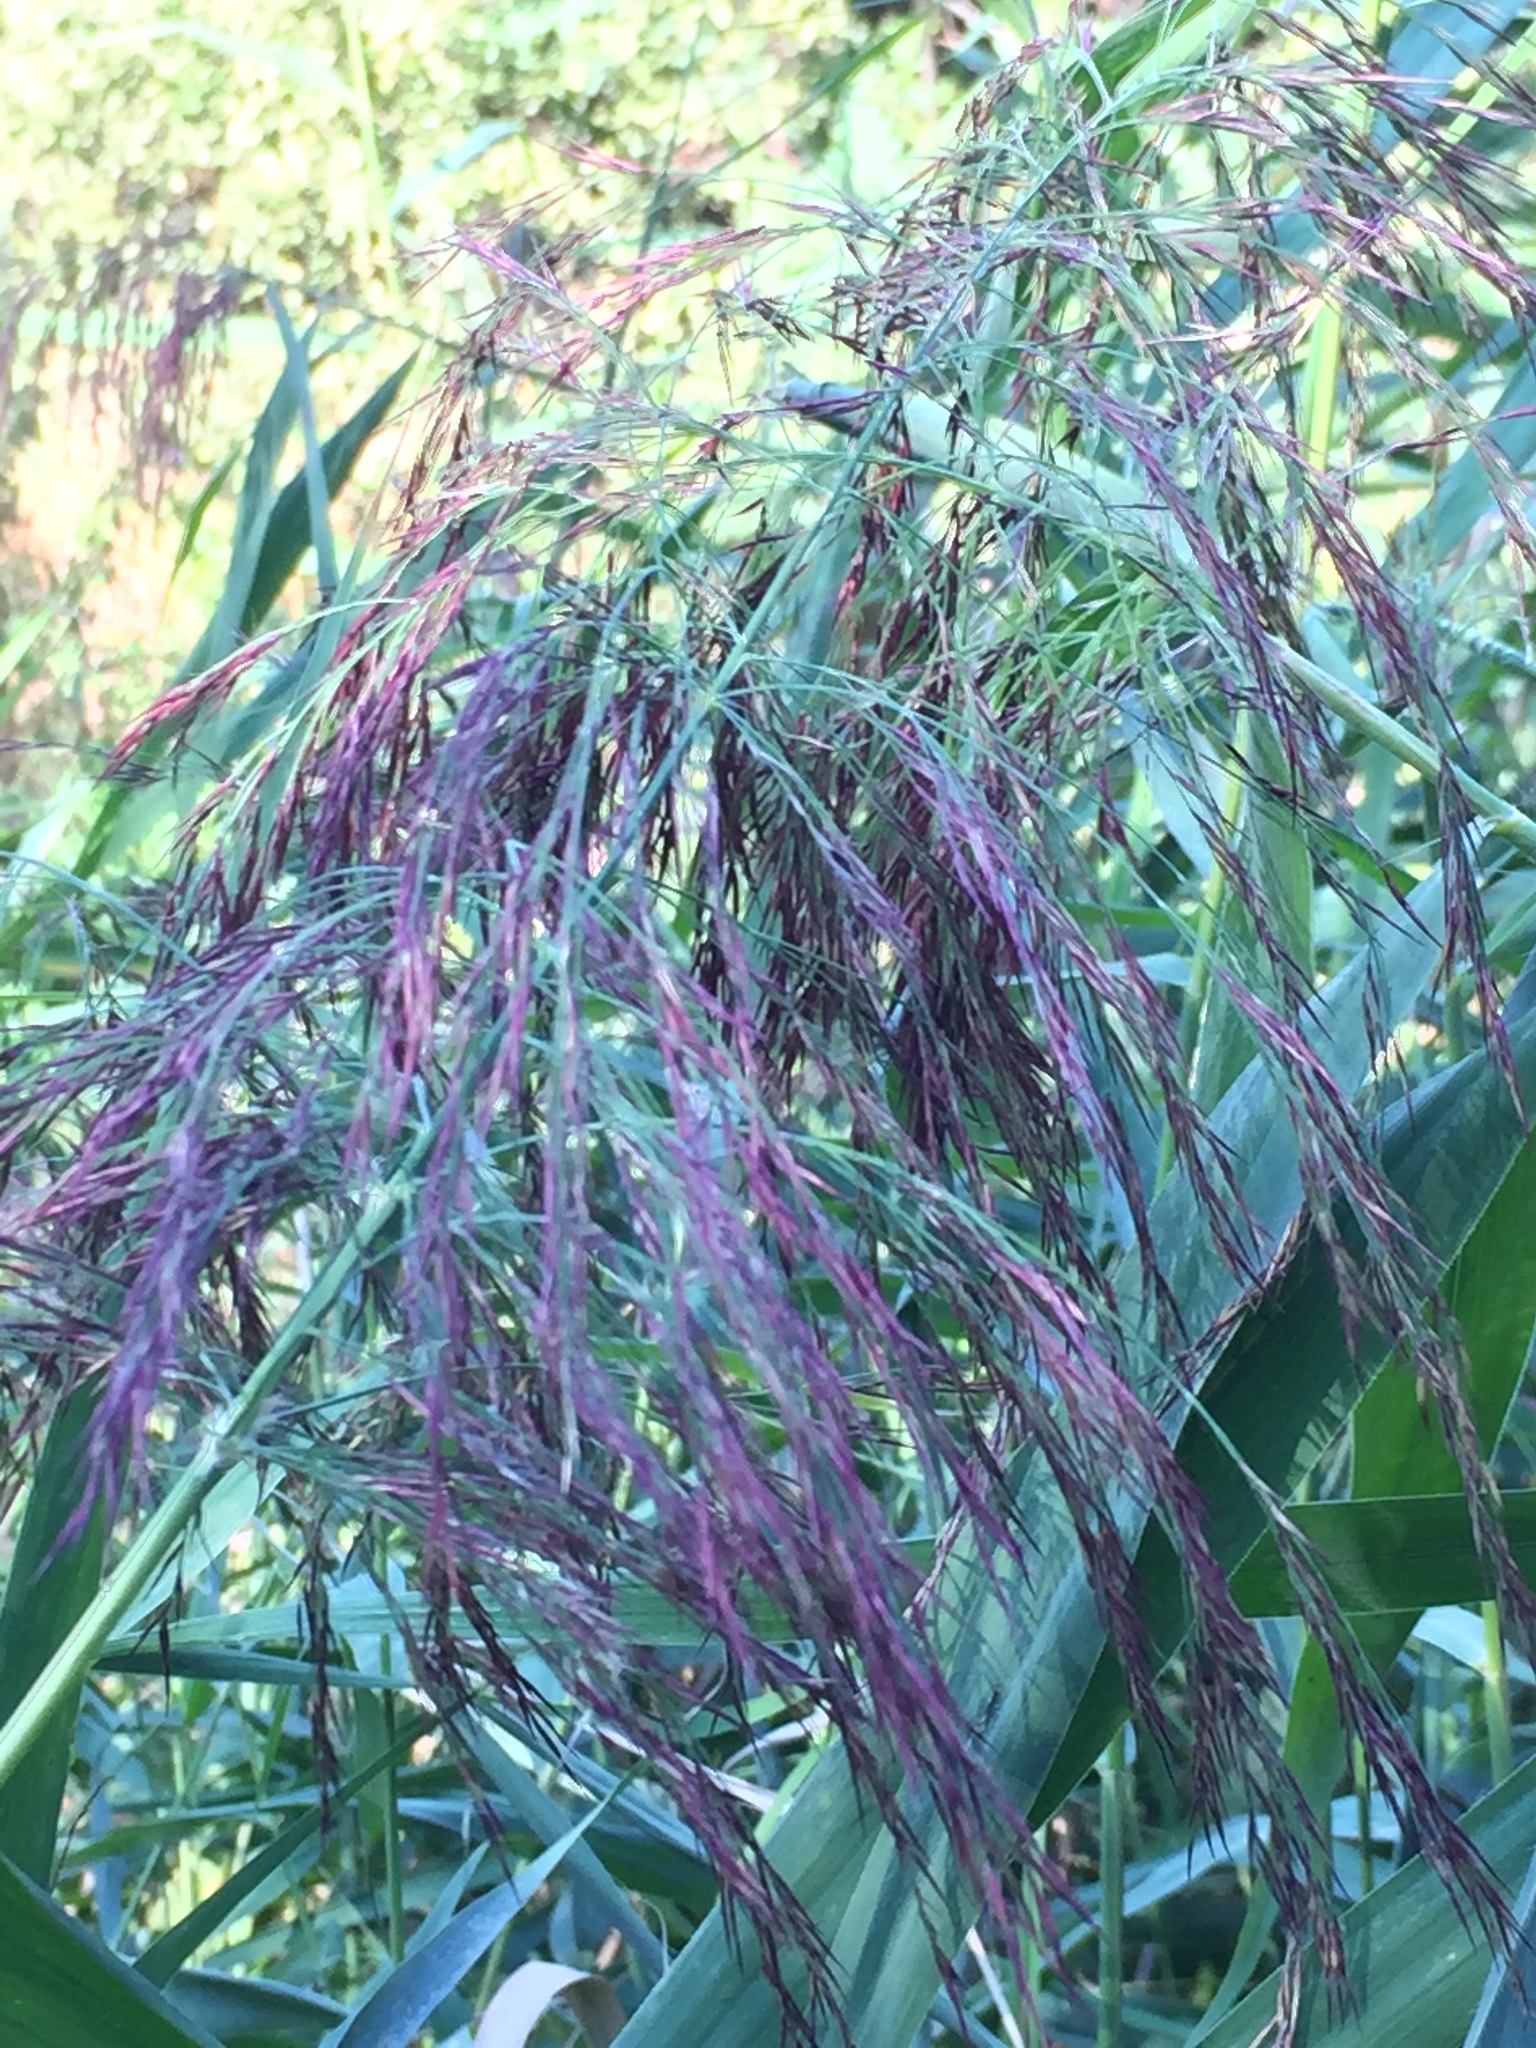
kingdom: Plantae
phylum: Tracheophyta
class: Liliopsida
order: Poales
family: Poaceae
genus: Phragmites
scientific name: Phragmites australis
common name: Common reed
